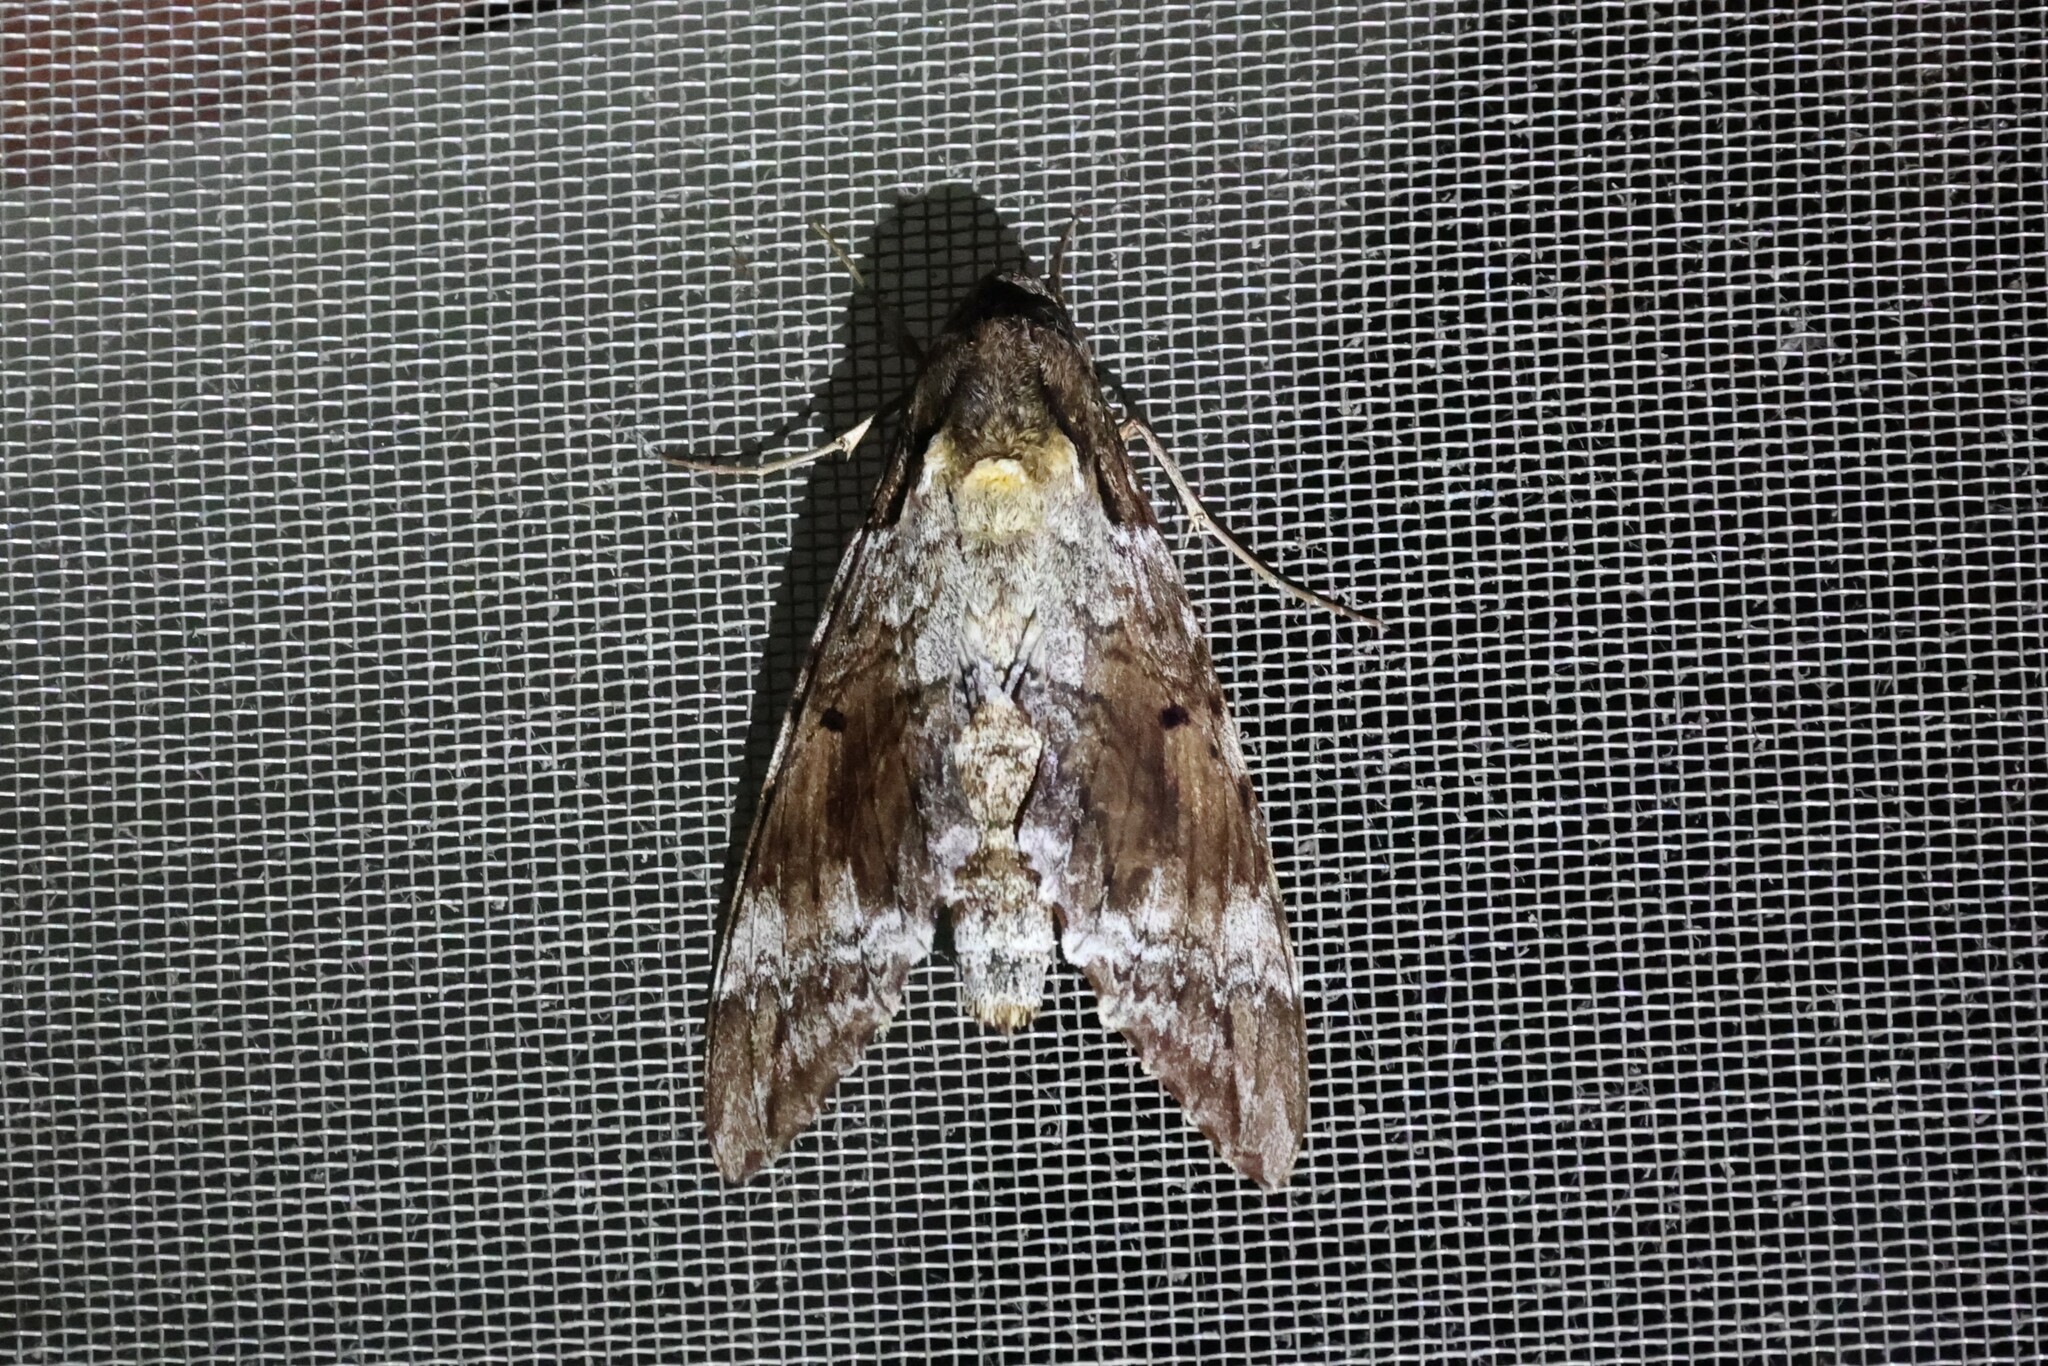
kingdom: Animalia
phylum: Arthropoda
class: Insecta
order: Lepidoptera
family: Sphingidae
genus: Pseudosphinx
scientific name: Pseudosphinx tetrio
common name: Tetrio sphinx
